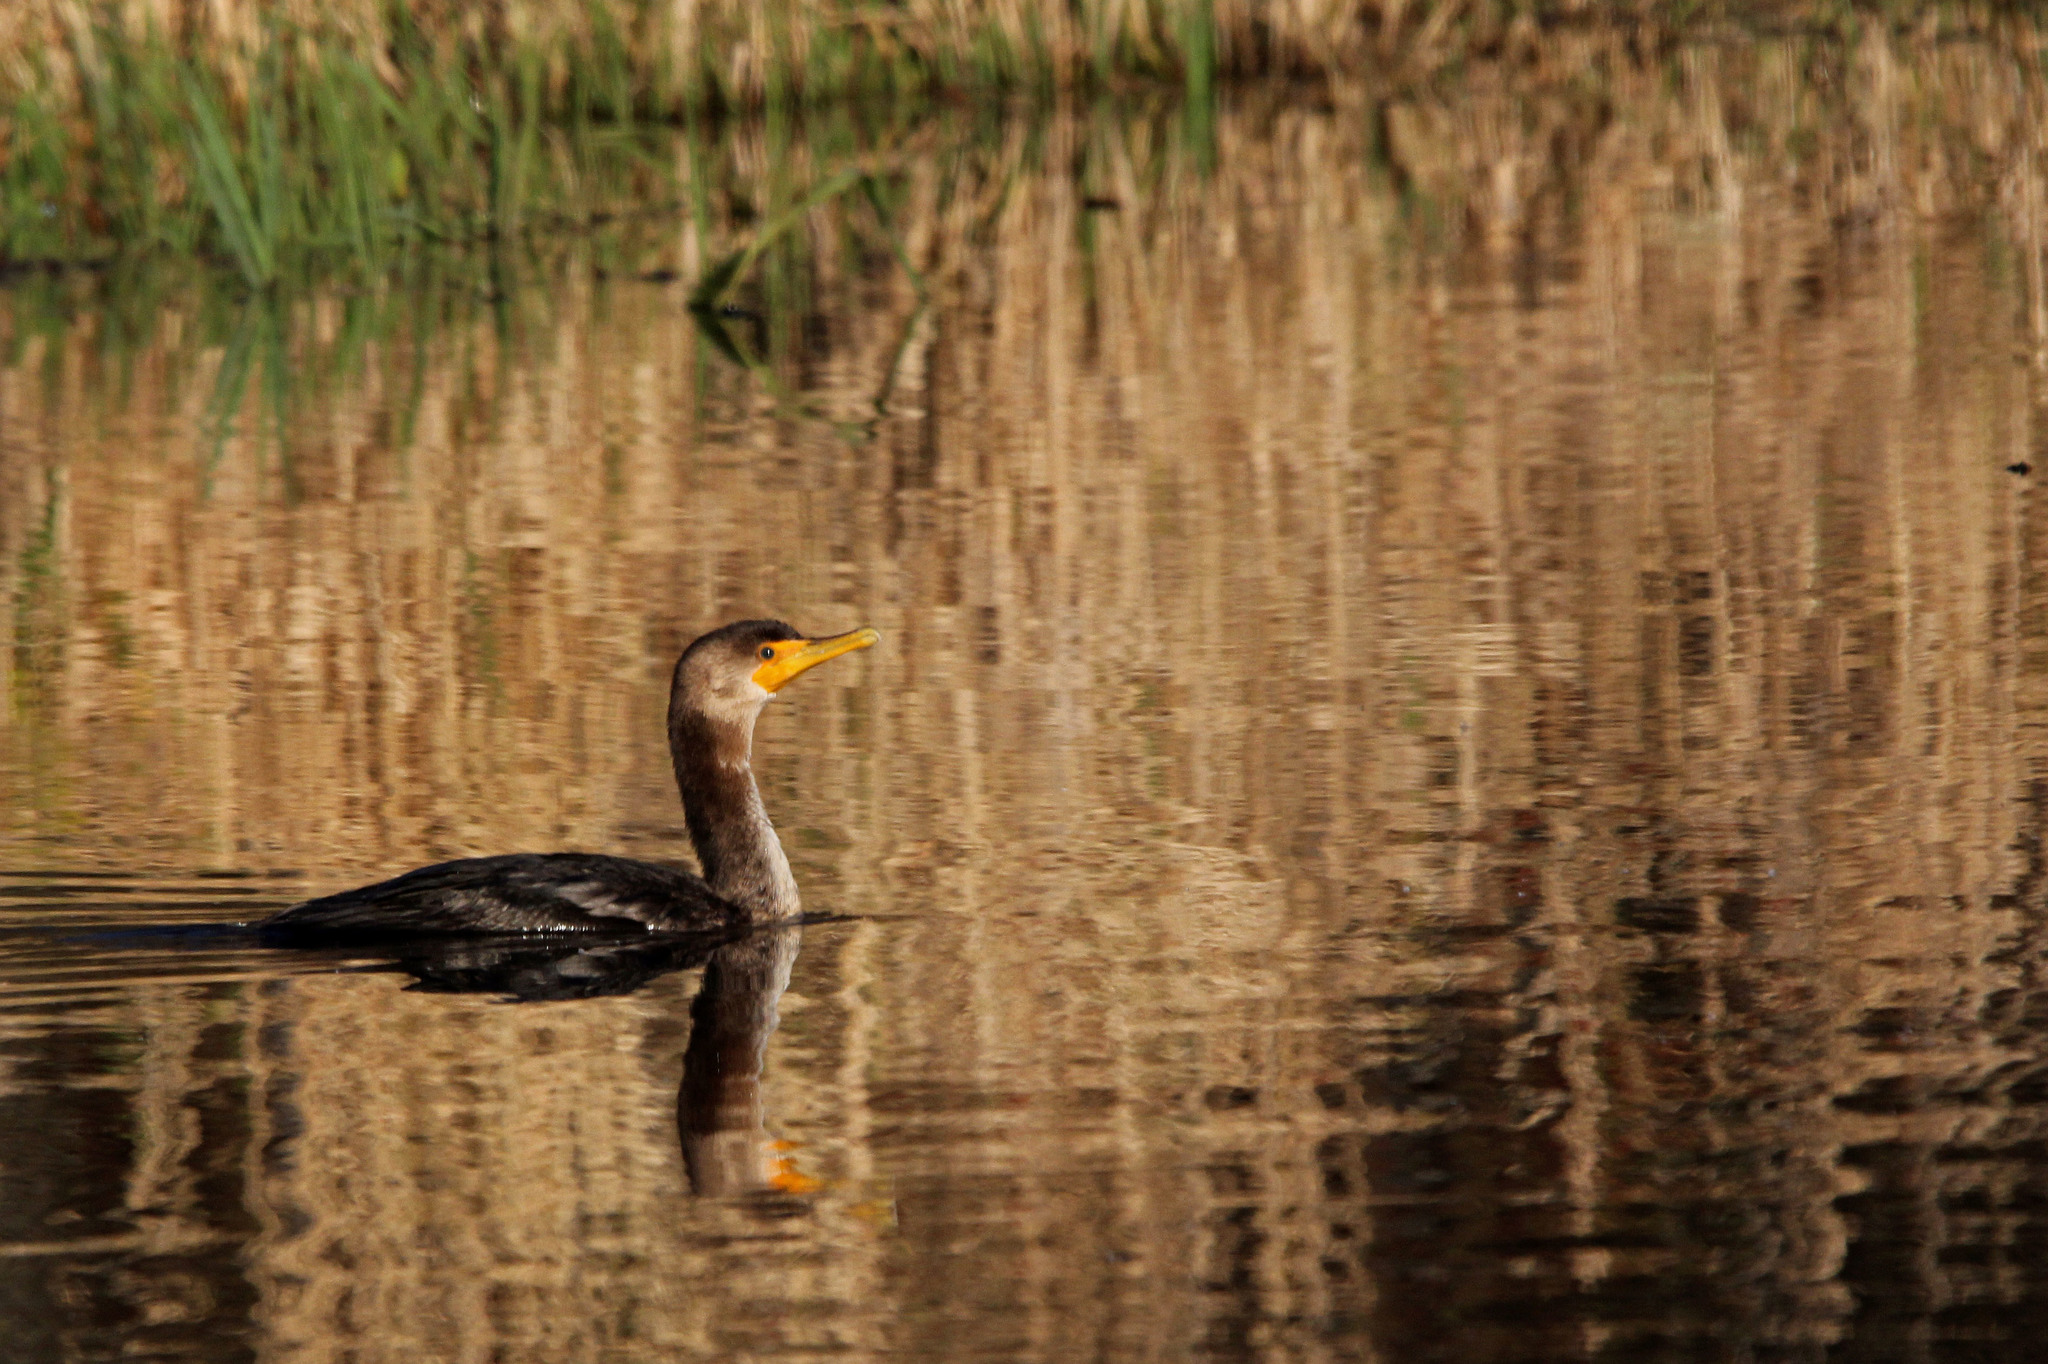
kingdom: Animalia
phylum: Chordata
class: Aves
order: Suliformes
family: Phalacrocoracidae
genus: Phalacrocorax
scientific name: Phalacrocorax auritus
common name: Double-crested cormorant
